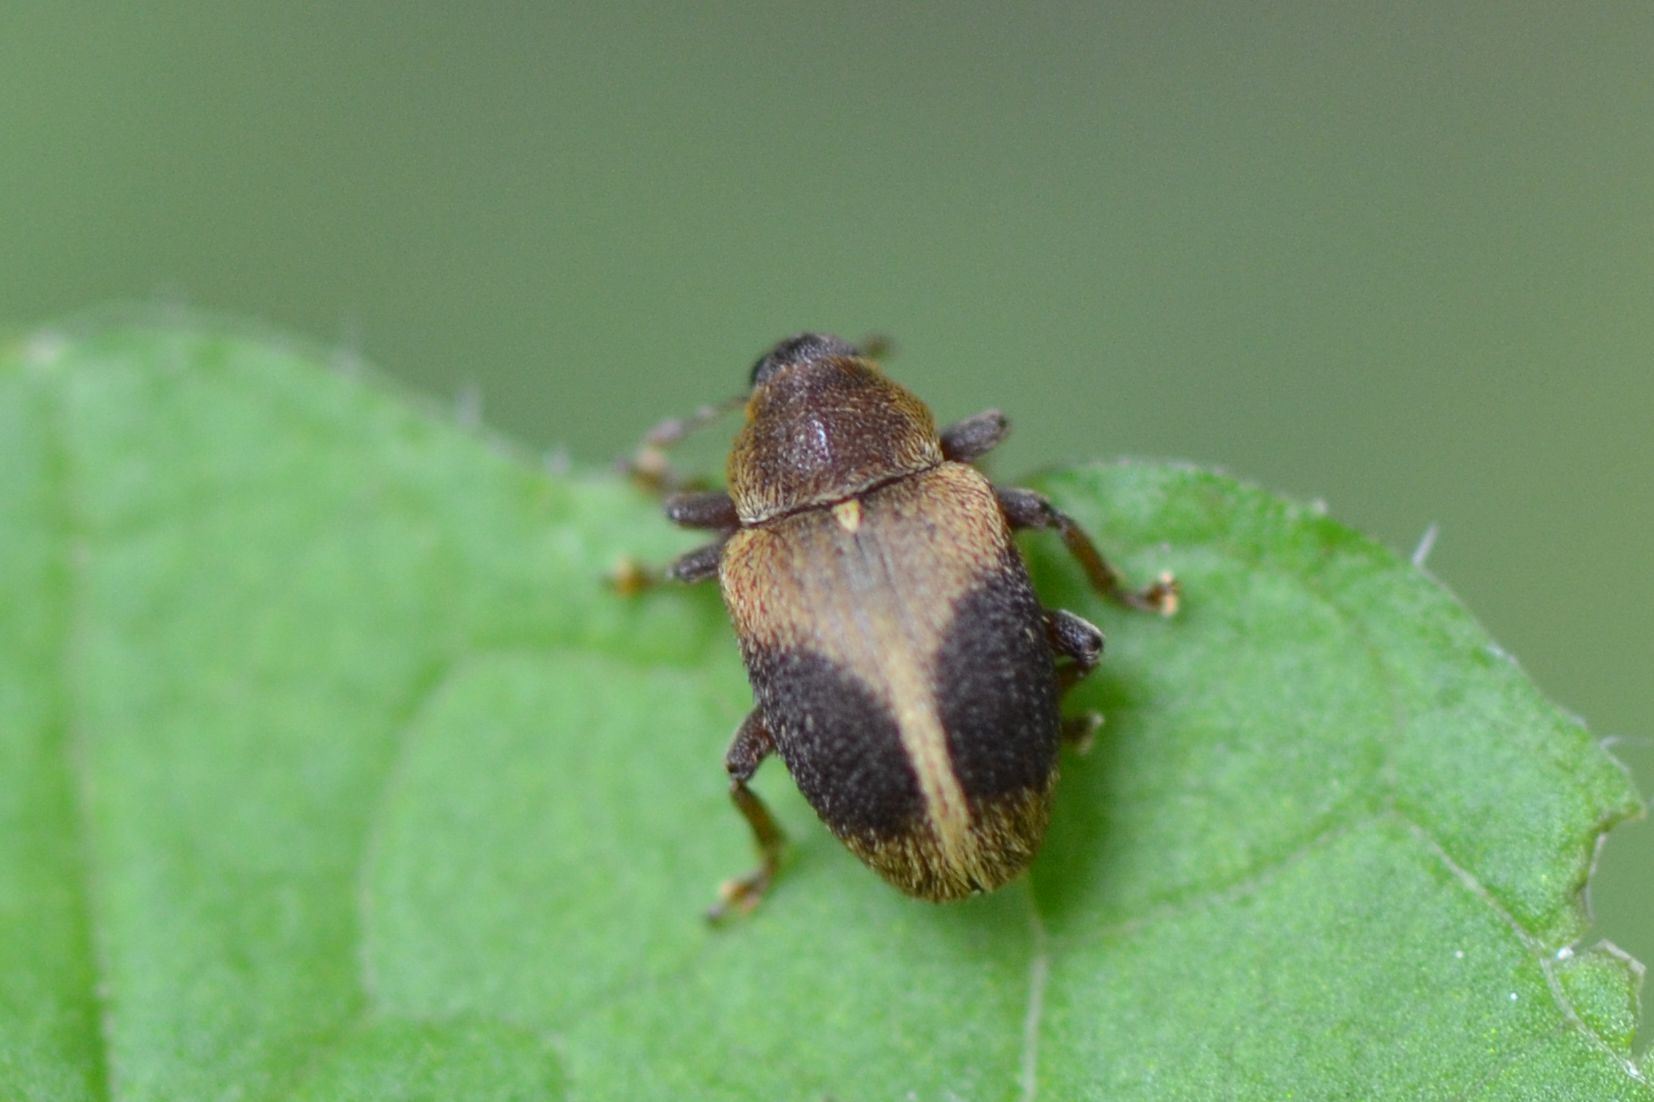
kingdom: Animalia
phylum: Arthropoda
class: Insecta
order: Coleoptera
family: Curculionidae
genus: Lignyodes
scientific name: Lignyodes enucleator
